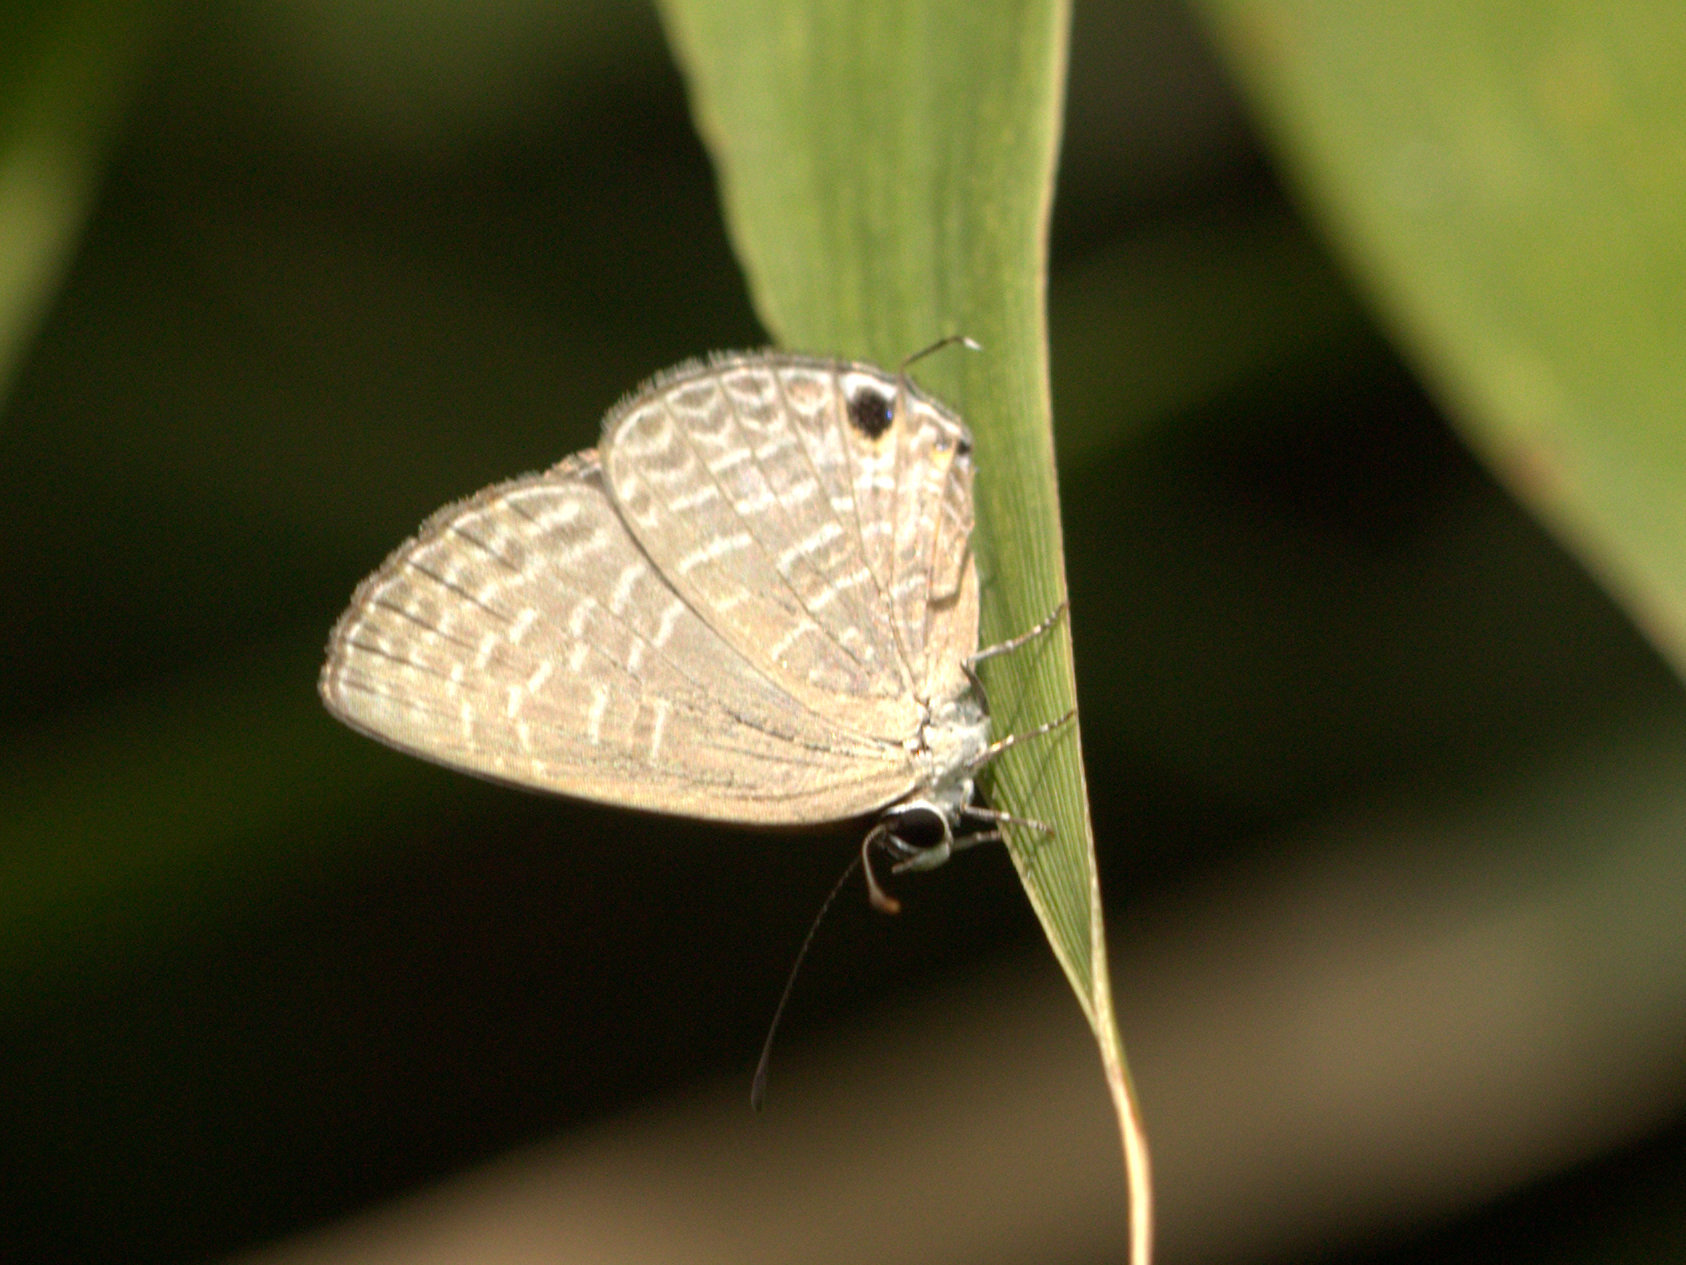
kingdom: Animalia
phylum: Arthropoda
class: Insecta
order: Lepidoptera
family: Lycaenidae
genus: Jamides
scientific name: Jamides bochus
